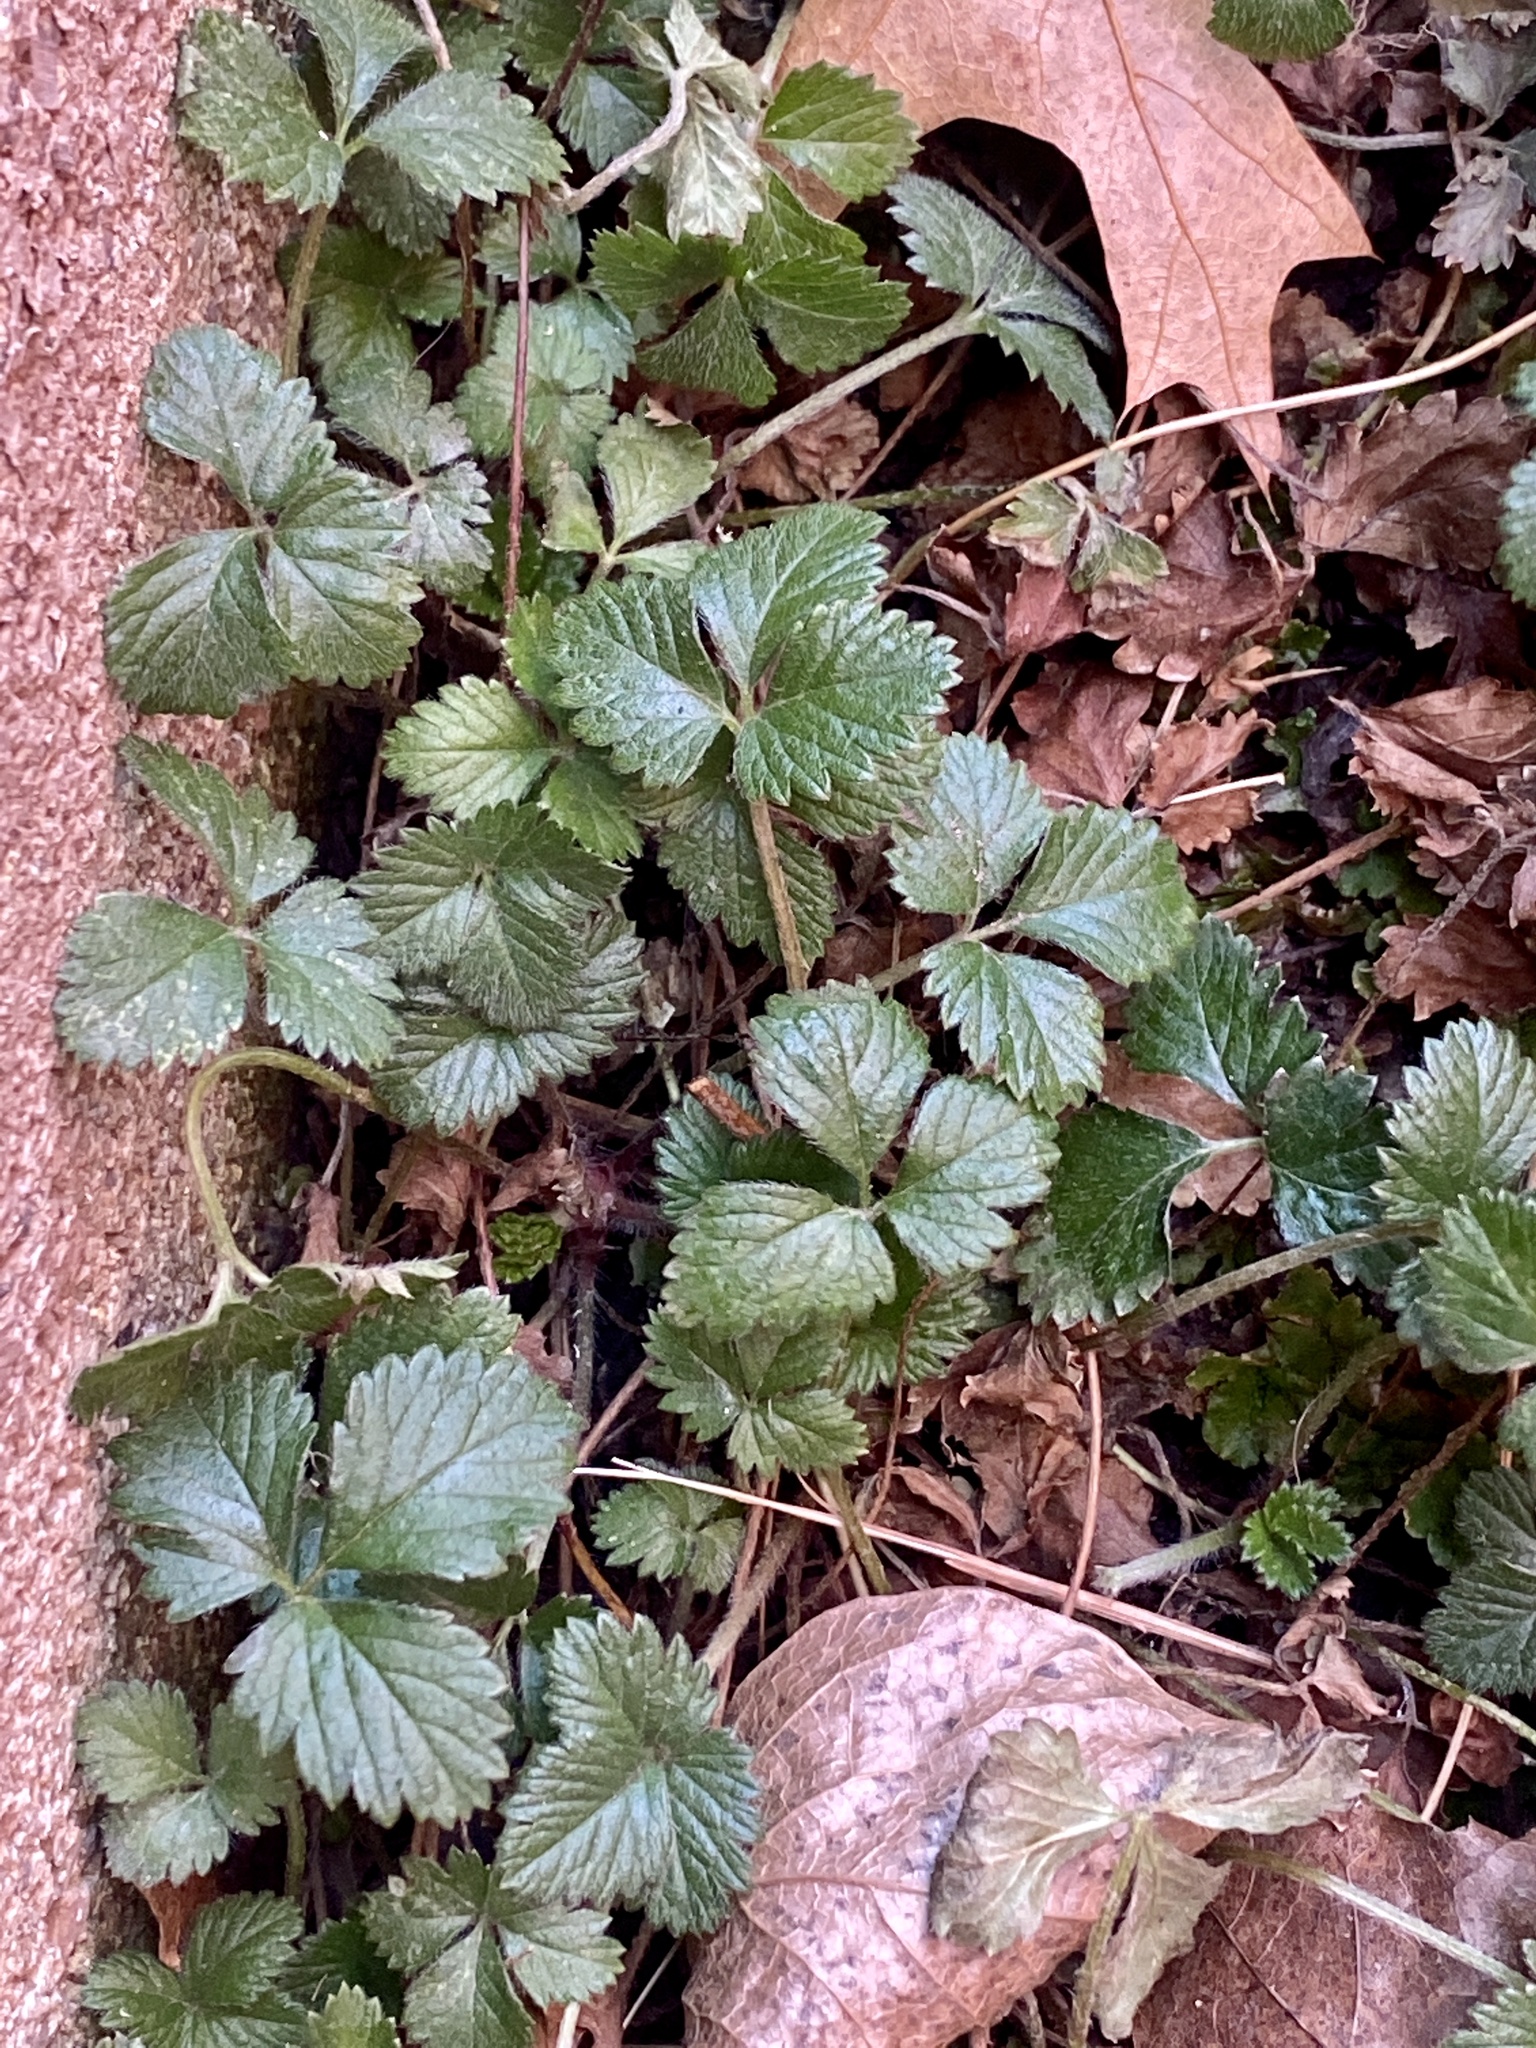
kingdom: Plantae
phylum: Tracheophyta
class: Magnoliopsida
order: Rosales
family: Rosaceae
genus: Potentilla
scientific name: Potentilla indica
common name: Yellow-flowered strawberry
